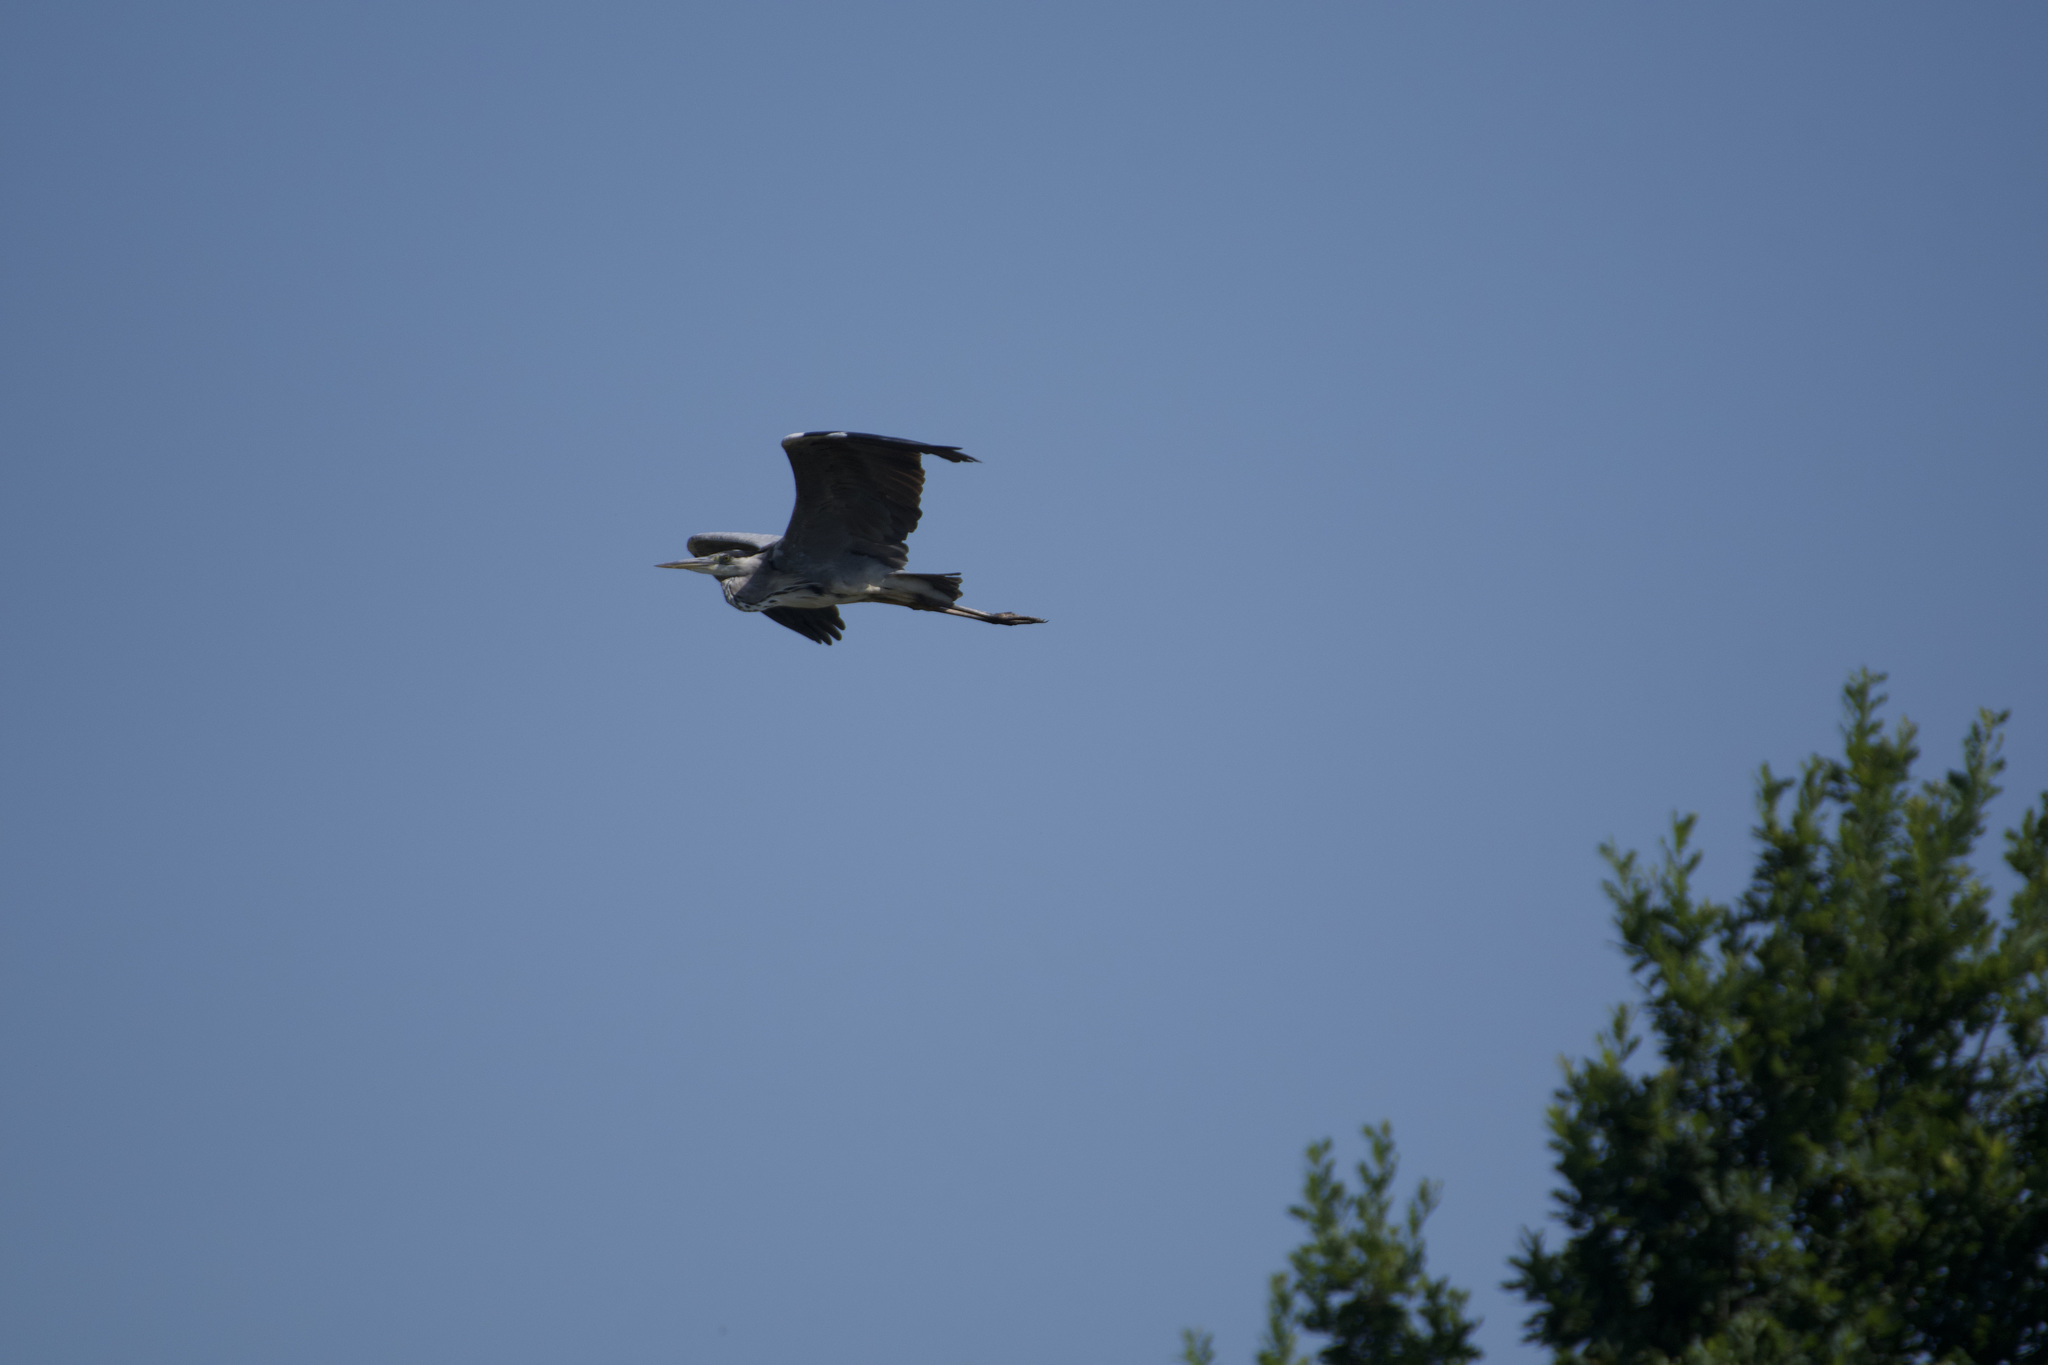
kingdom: Animalia
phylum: Chordata
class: Aves
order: Pelecaniformes
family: Ardeidae
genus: Ardea
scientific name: Ardea cinerea
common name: Grey heron
